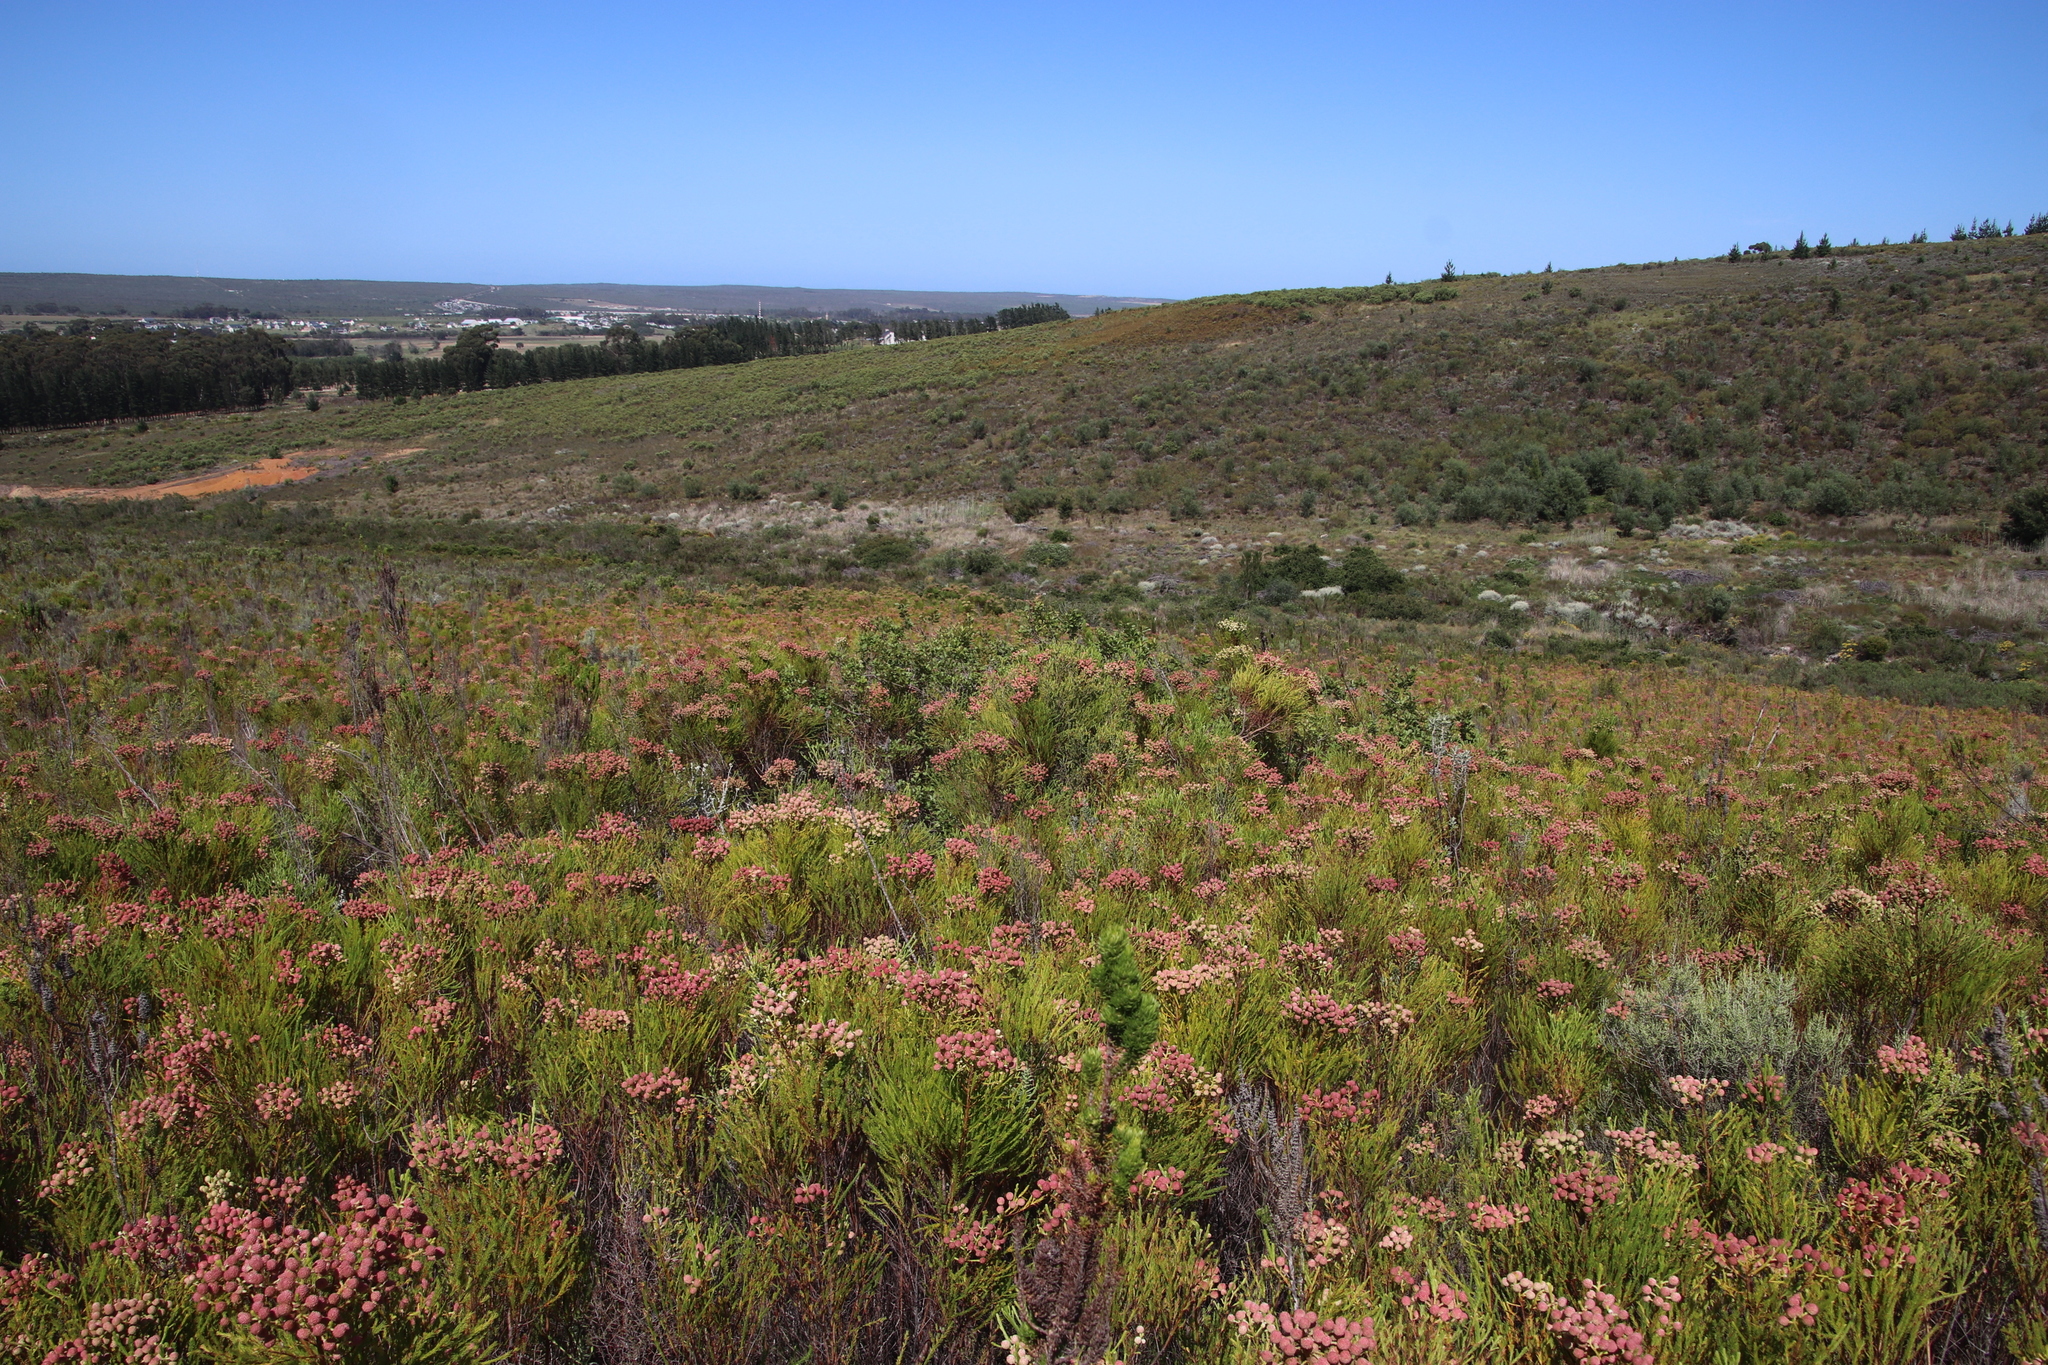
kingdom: Plantae
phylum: Tracheophyta
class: Magnoliopsida
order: Sapindales
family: Anacardiaceae
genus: Searsia
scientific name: Searsia laevigata
